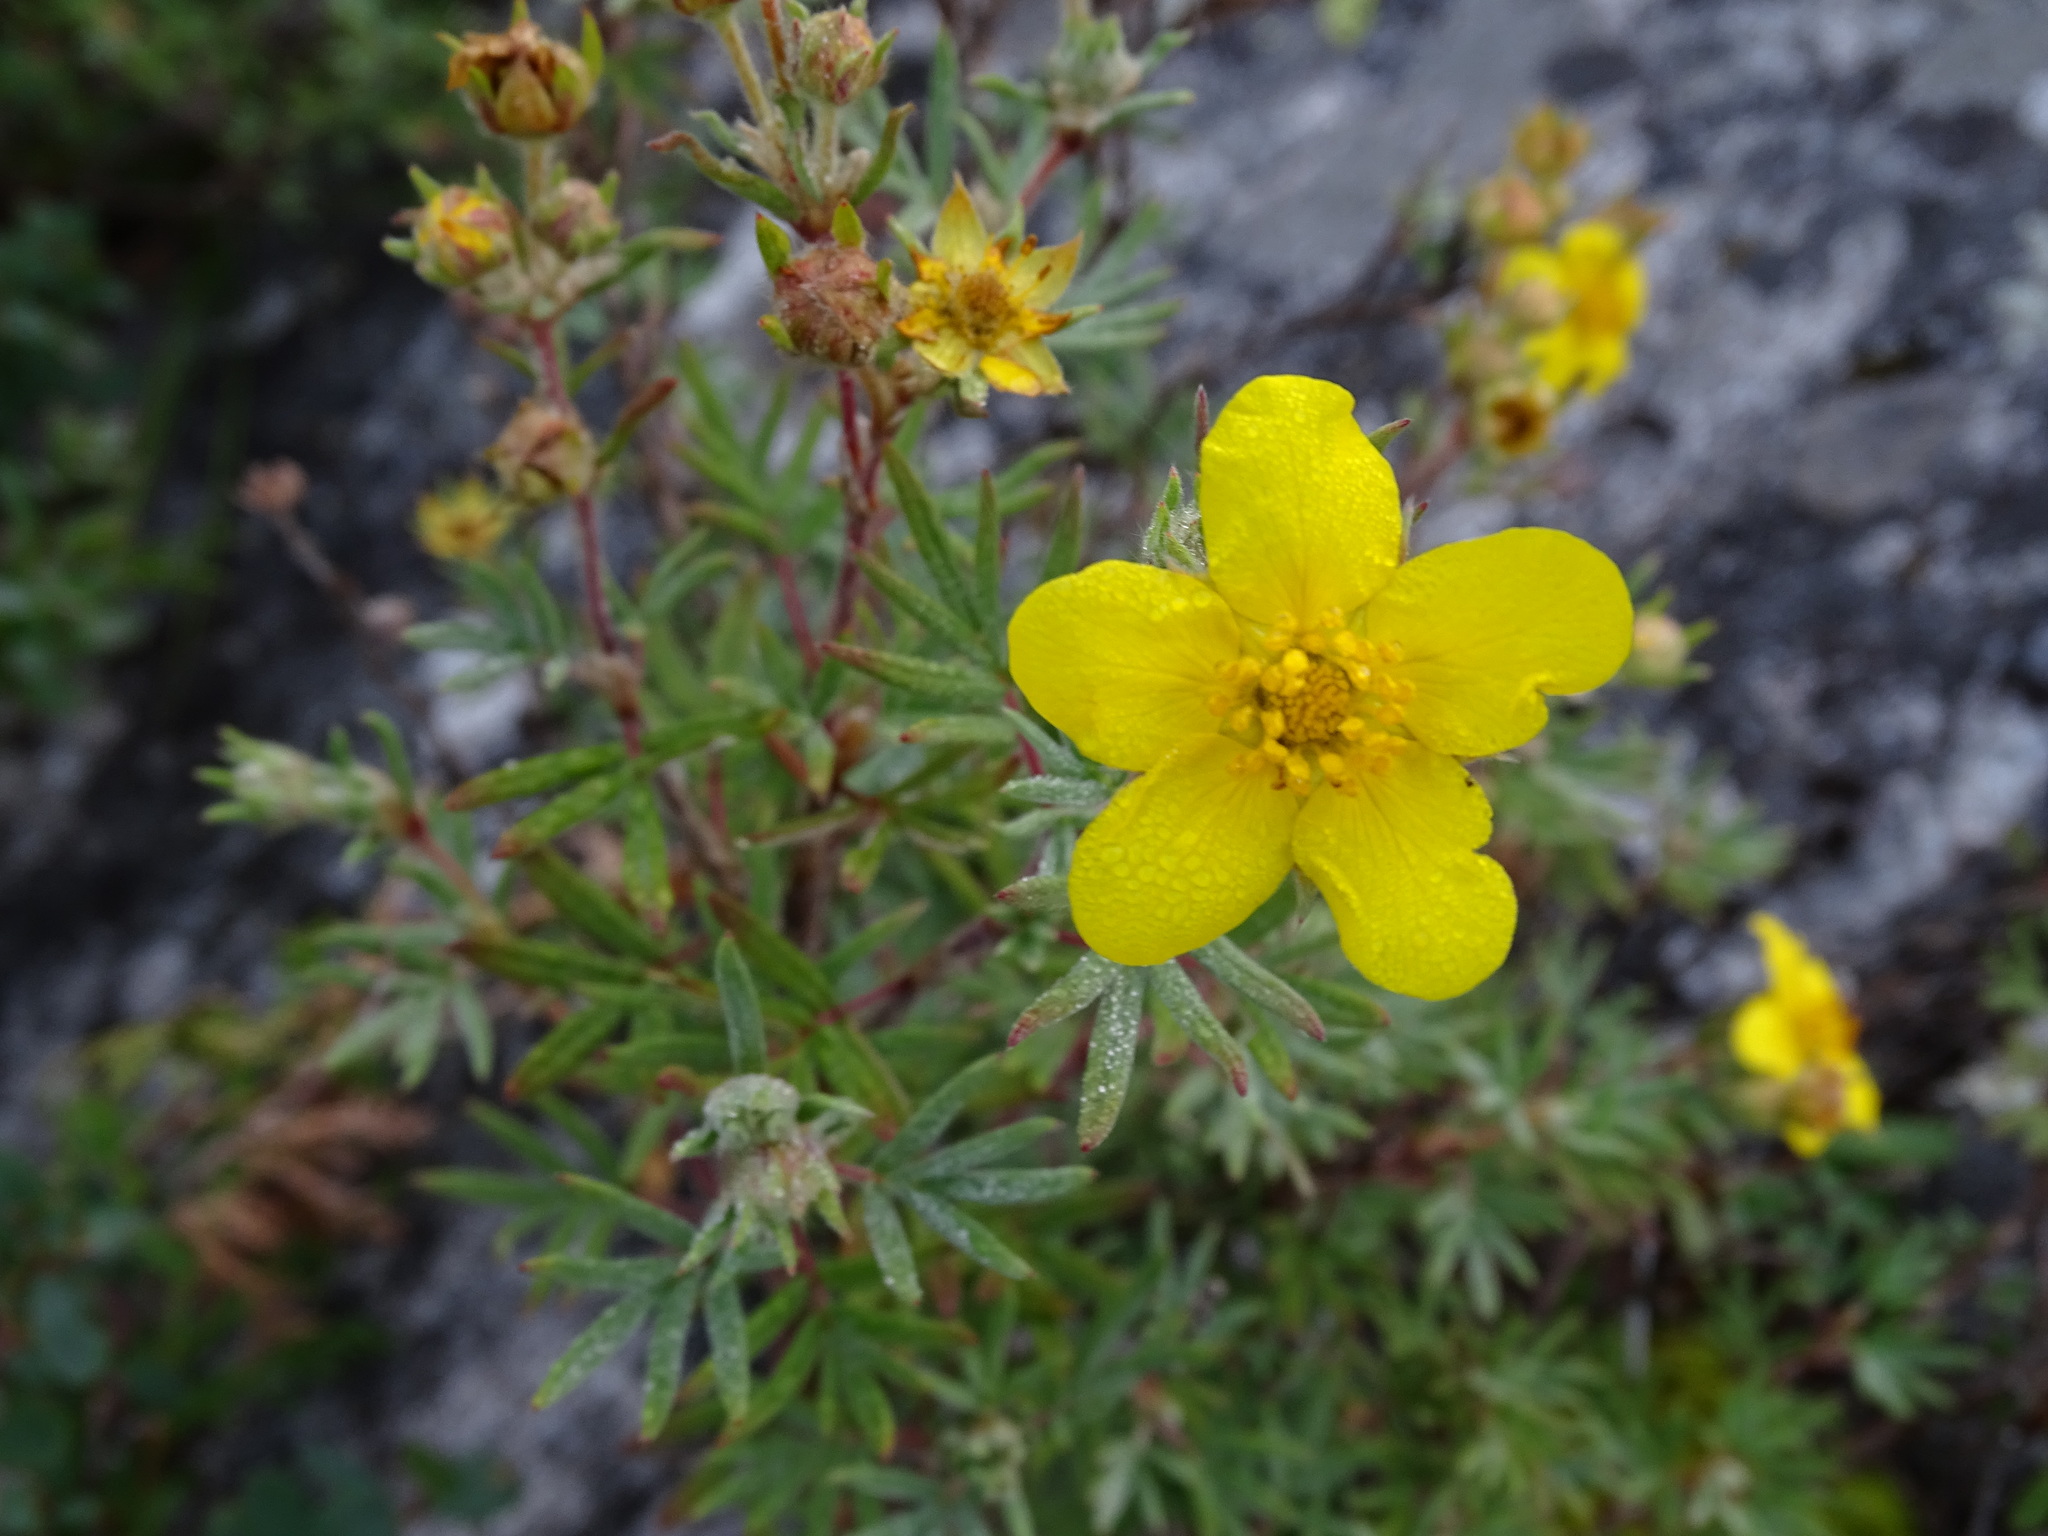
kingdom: Plantae
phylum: Tracheophyta
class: Magnoliopsida
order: Rosales
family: Rosaceae
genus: Dasiphora
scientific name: Dasiphora fruticosa
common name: Shrubby cinquefoil
